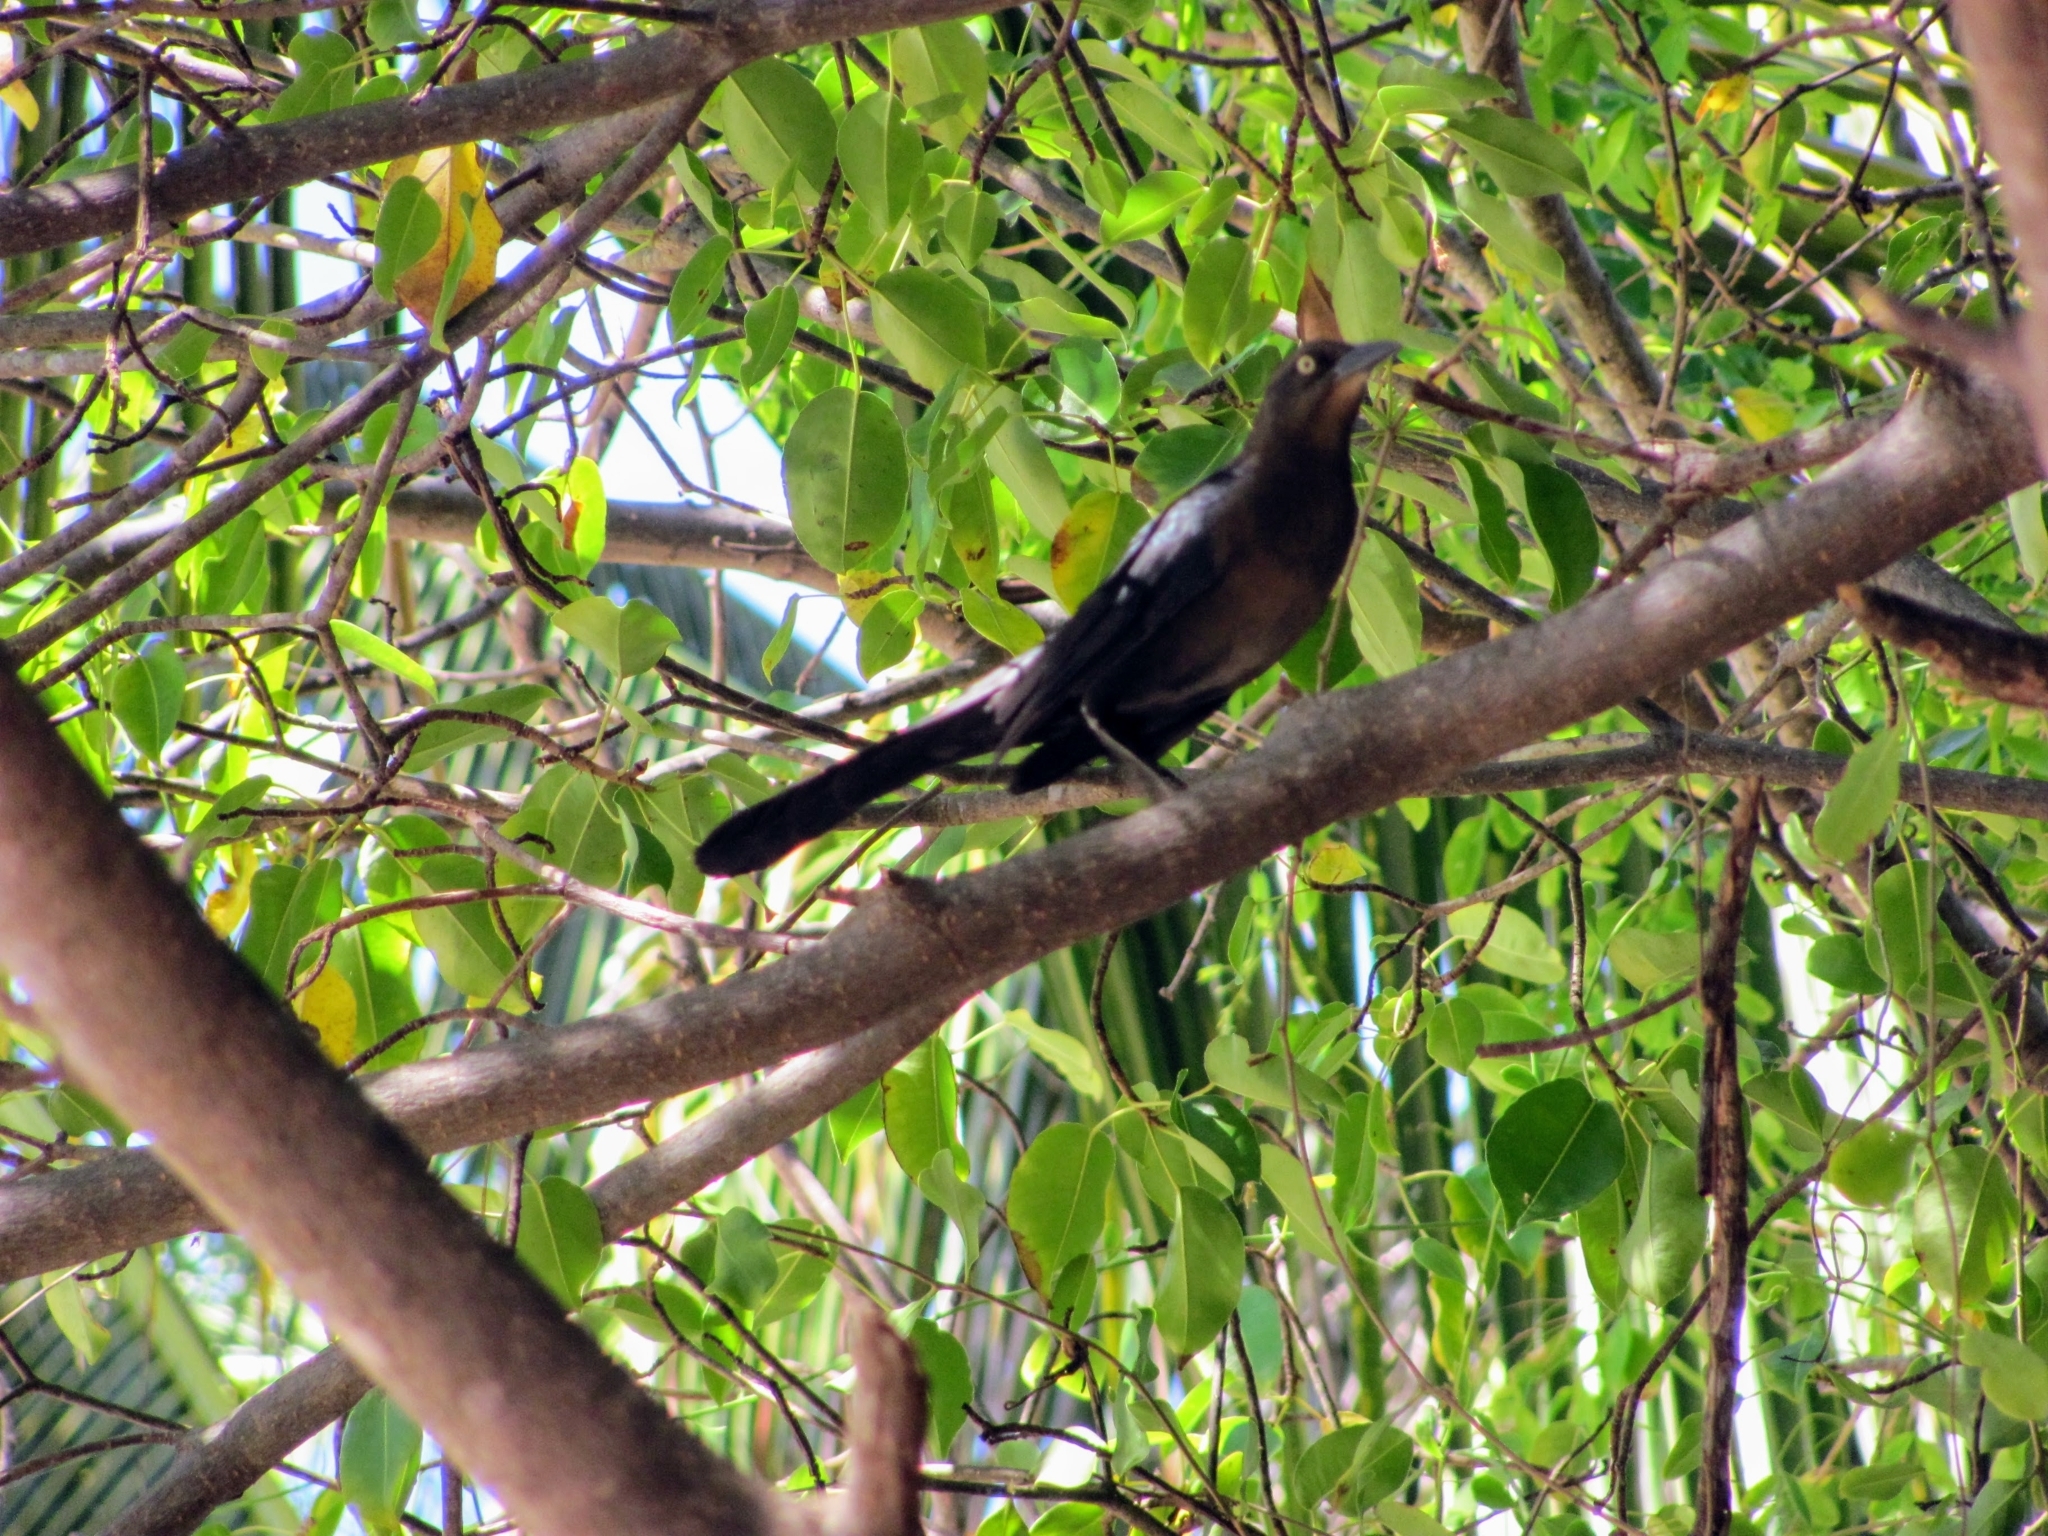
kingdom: Animalia
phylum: Chordata
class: Aves
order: Passeriformes
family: Icteridae
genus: Quiscalus
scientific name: Quiscalus mexicanus
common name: Great-tailed grackle
